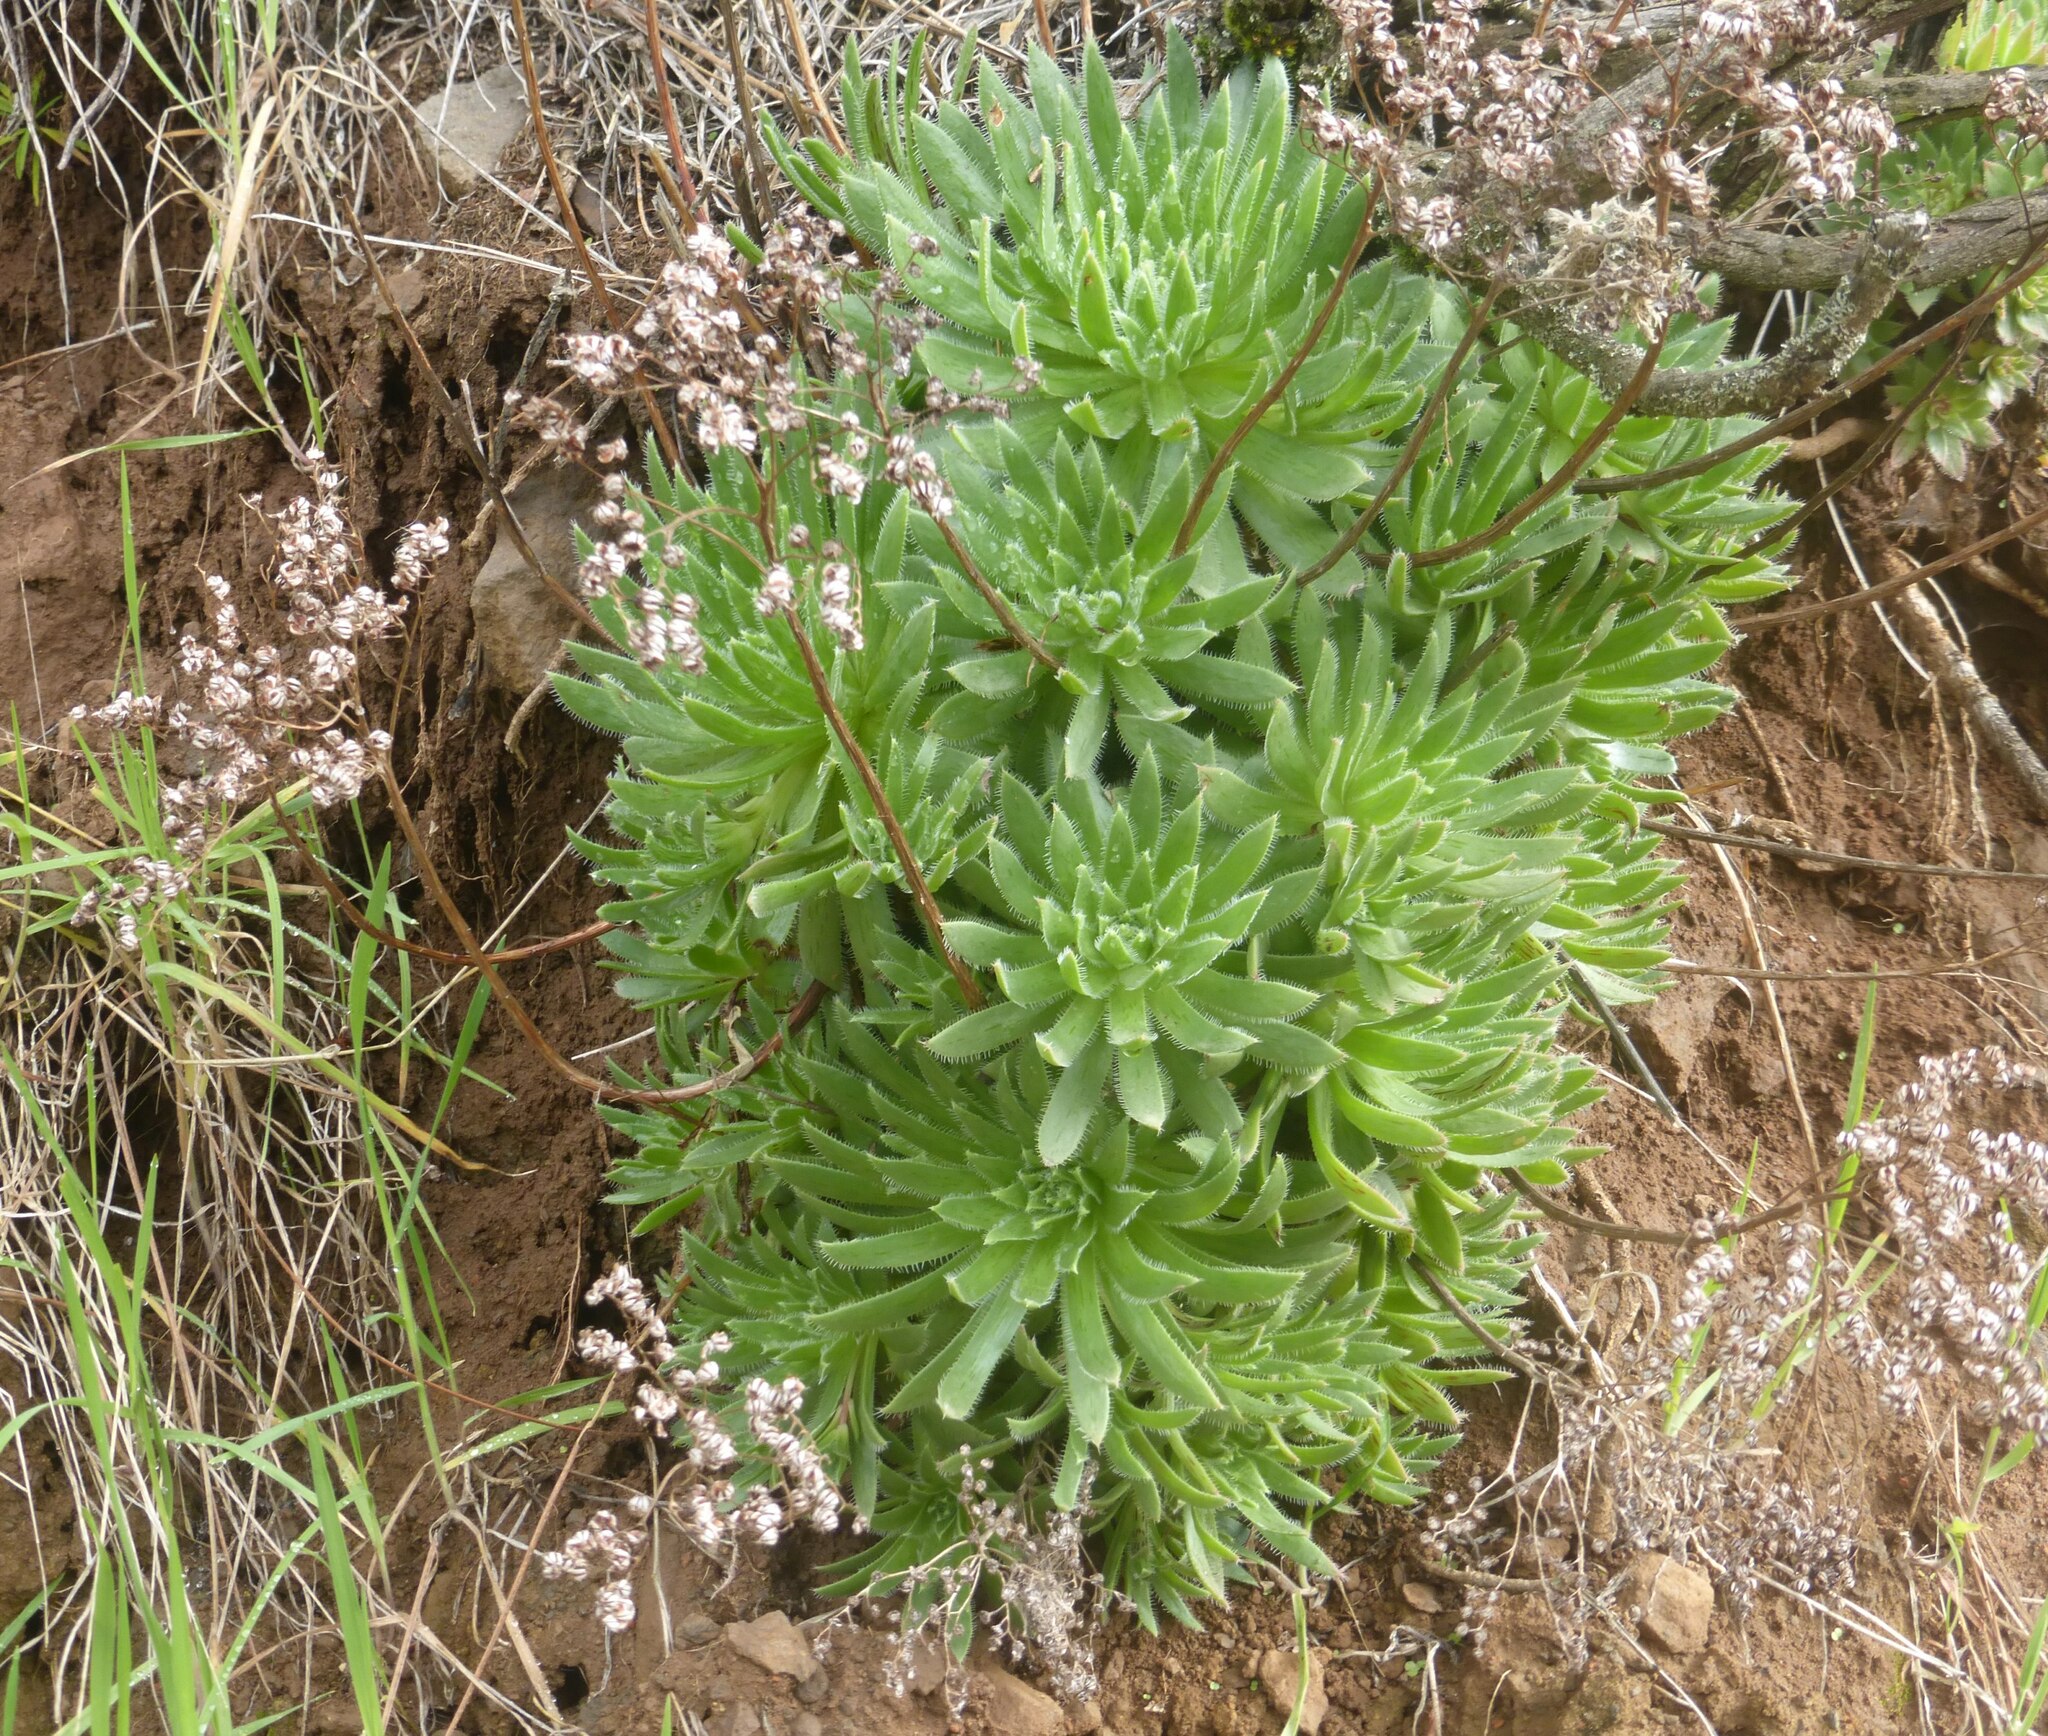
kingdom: Plantae
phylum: Tracheophyta
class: Magnoliopsida
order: Saxifragales
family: Crassulaceae
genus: Aeonium
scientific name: Aeonium simsii
